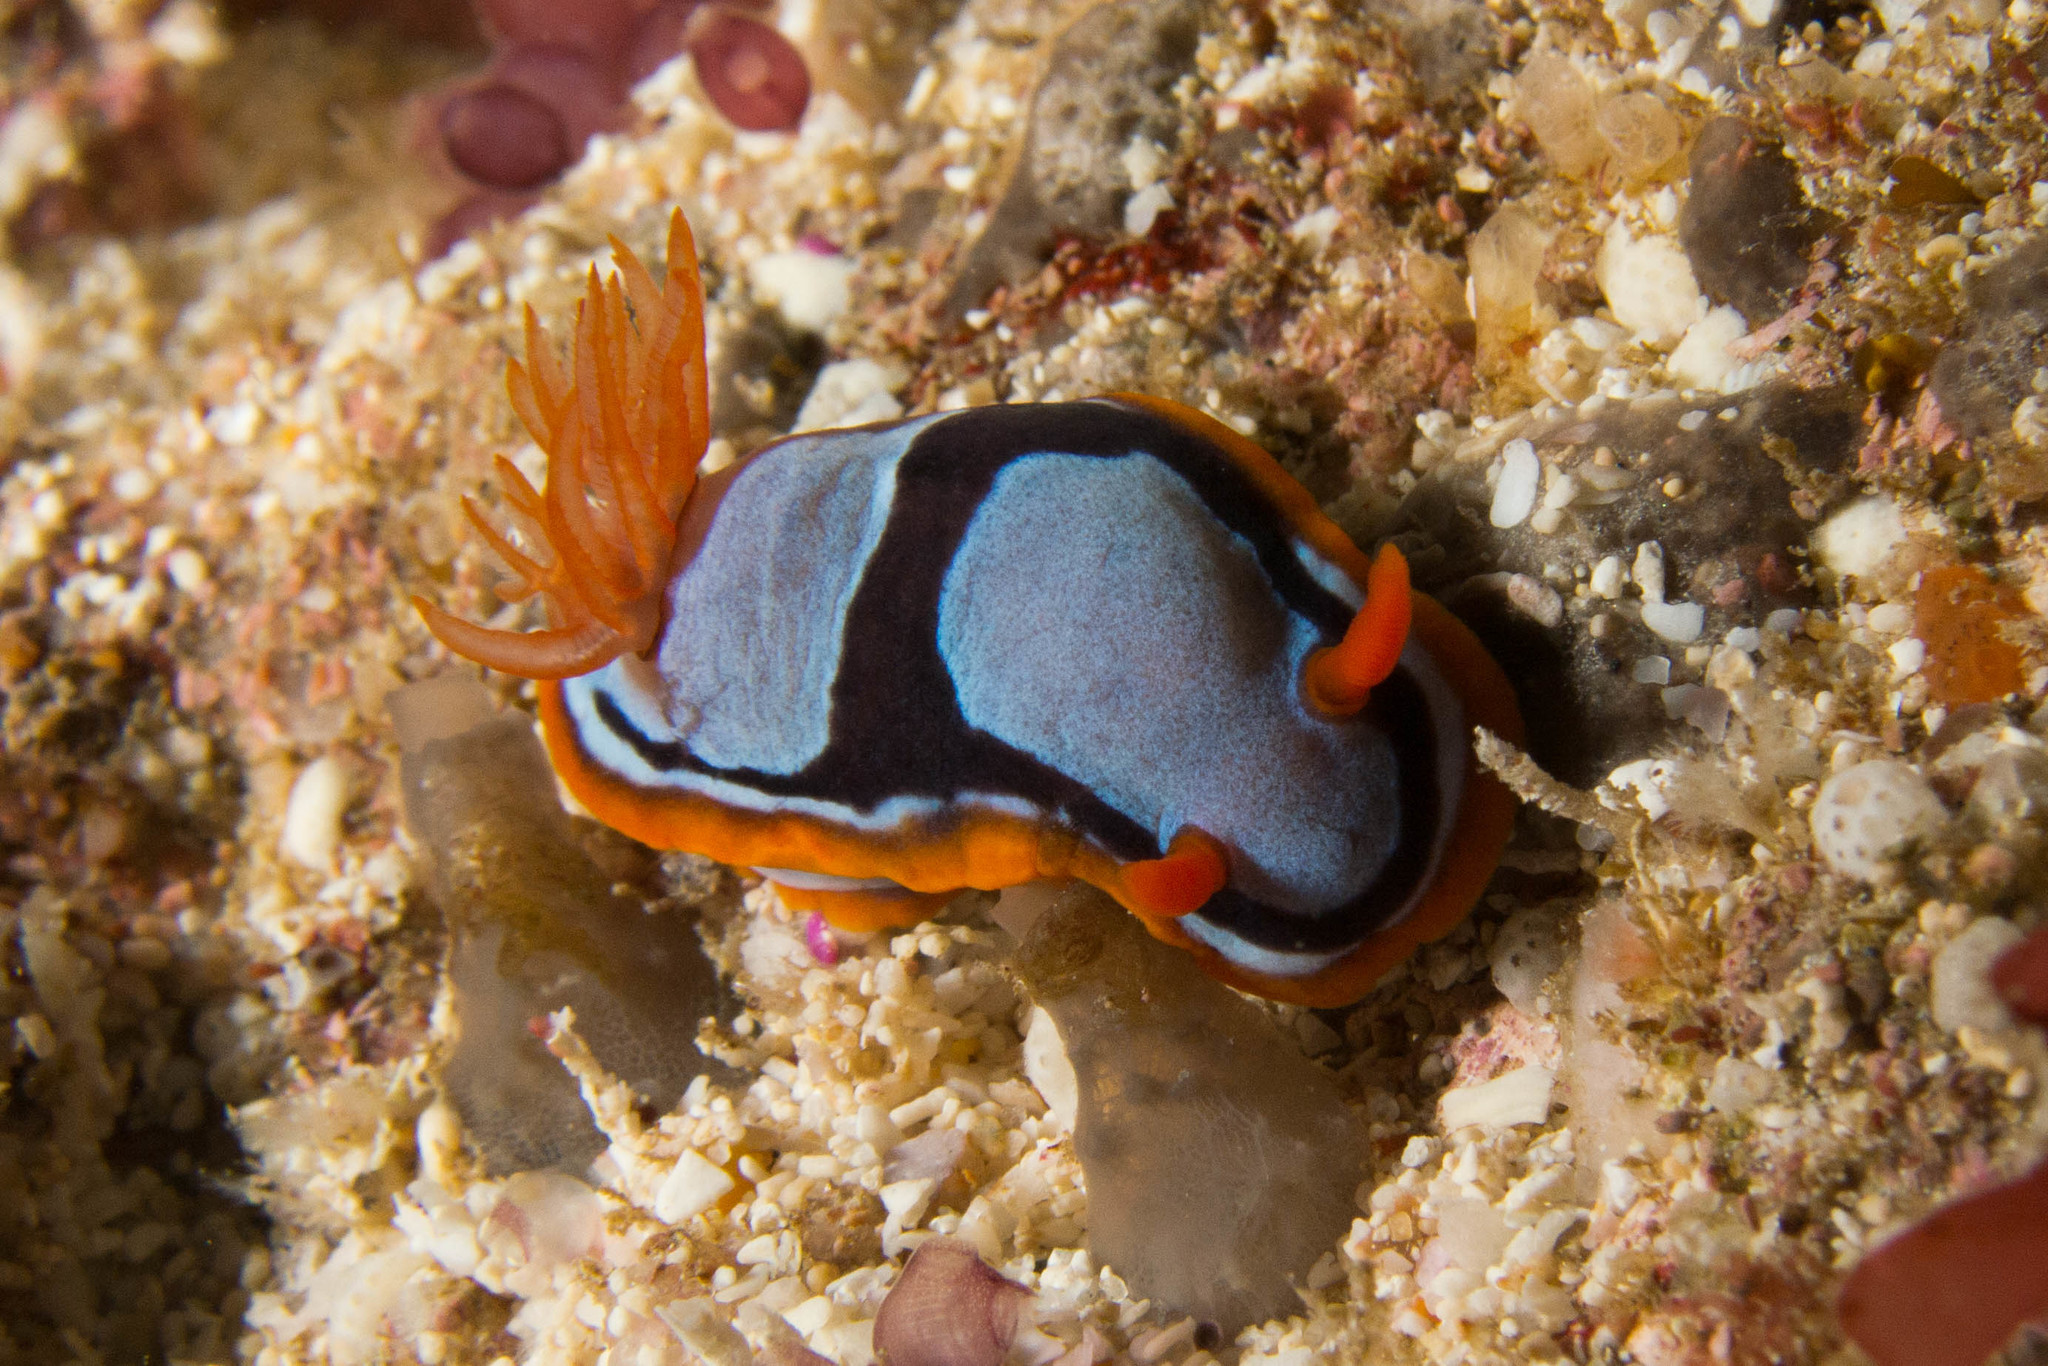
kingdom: Animalia
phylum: Mollusca
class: Gastropoda
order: Nudibranchia
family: Chromodorididae
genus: Chromodoris
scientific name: Chromodoris westraliensis
